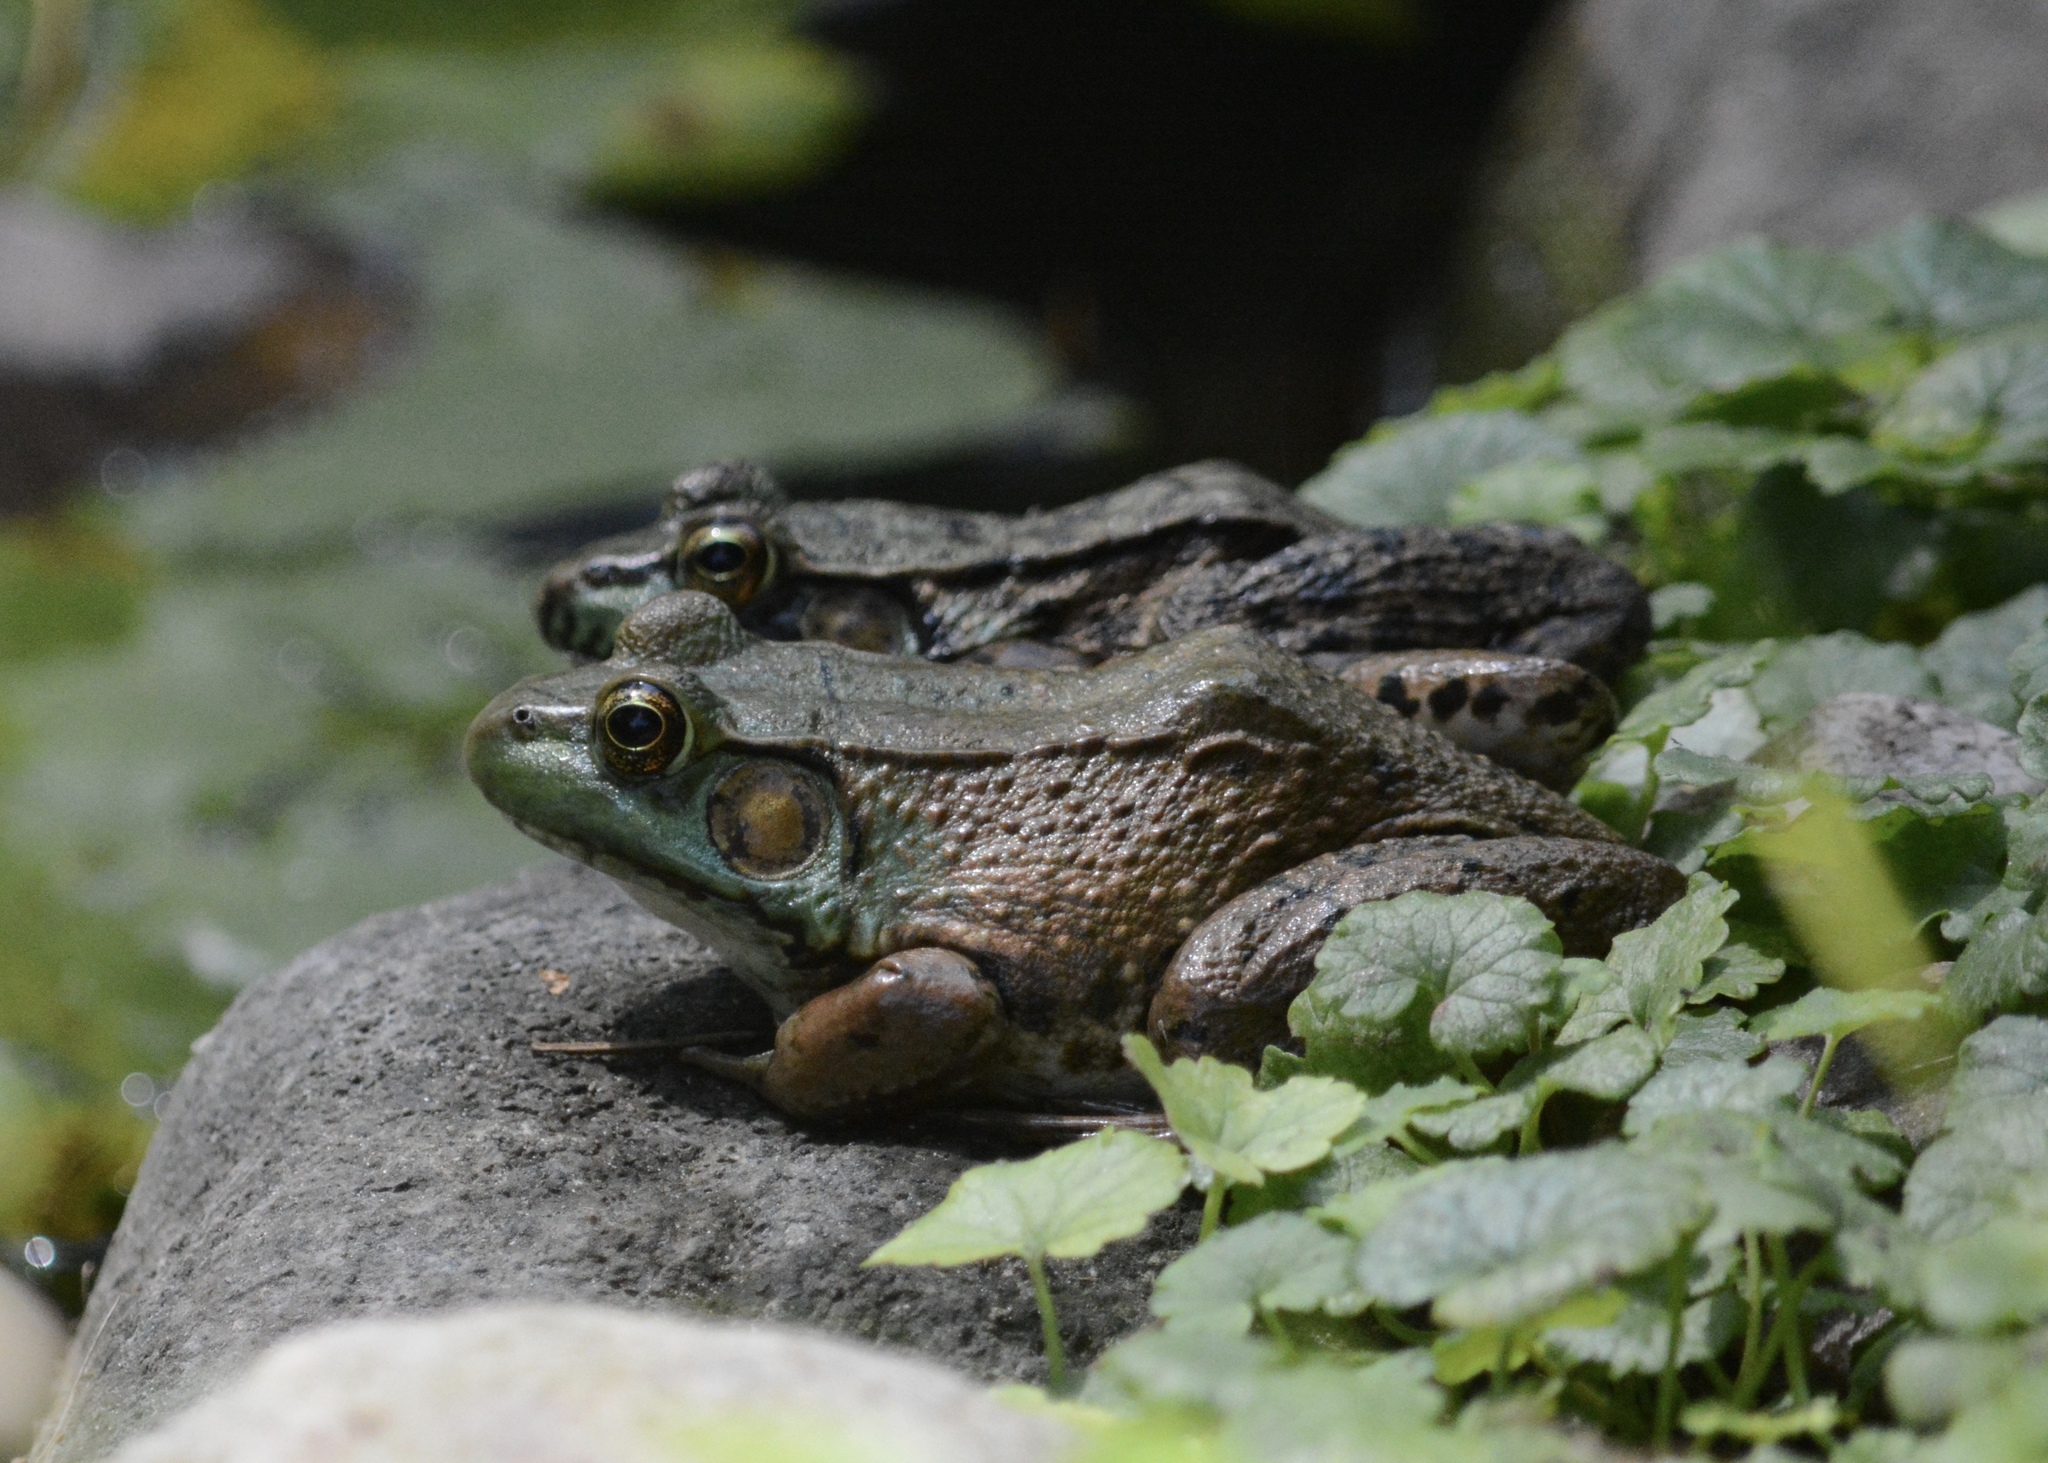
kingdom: Animalia
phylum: Chordata
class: Amphibia
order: Anura
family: Ranidae
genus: Lithobates
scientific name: Lithobates clamitans
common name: Green frog
